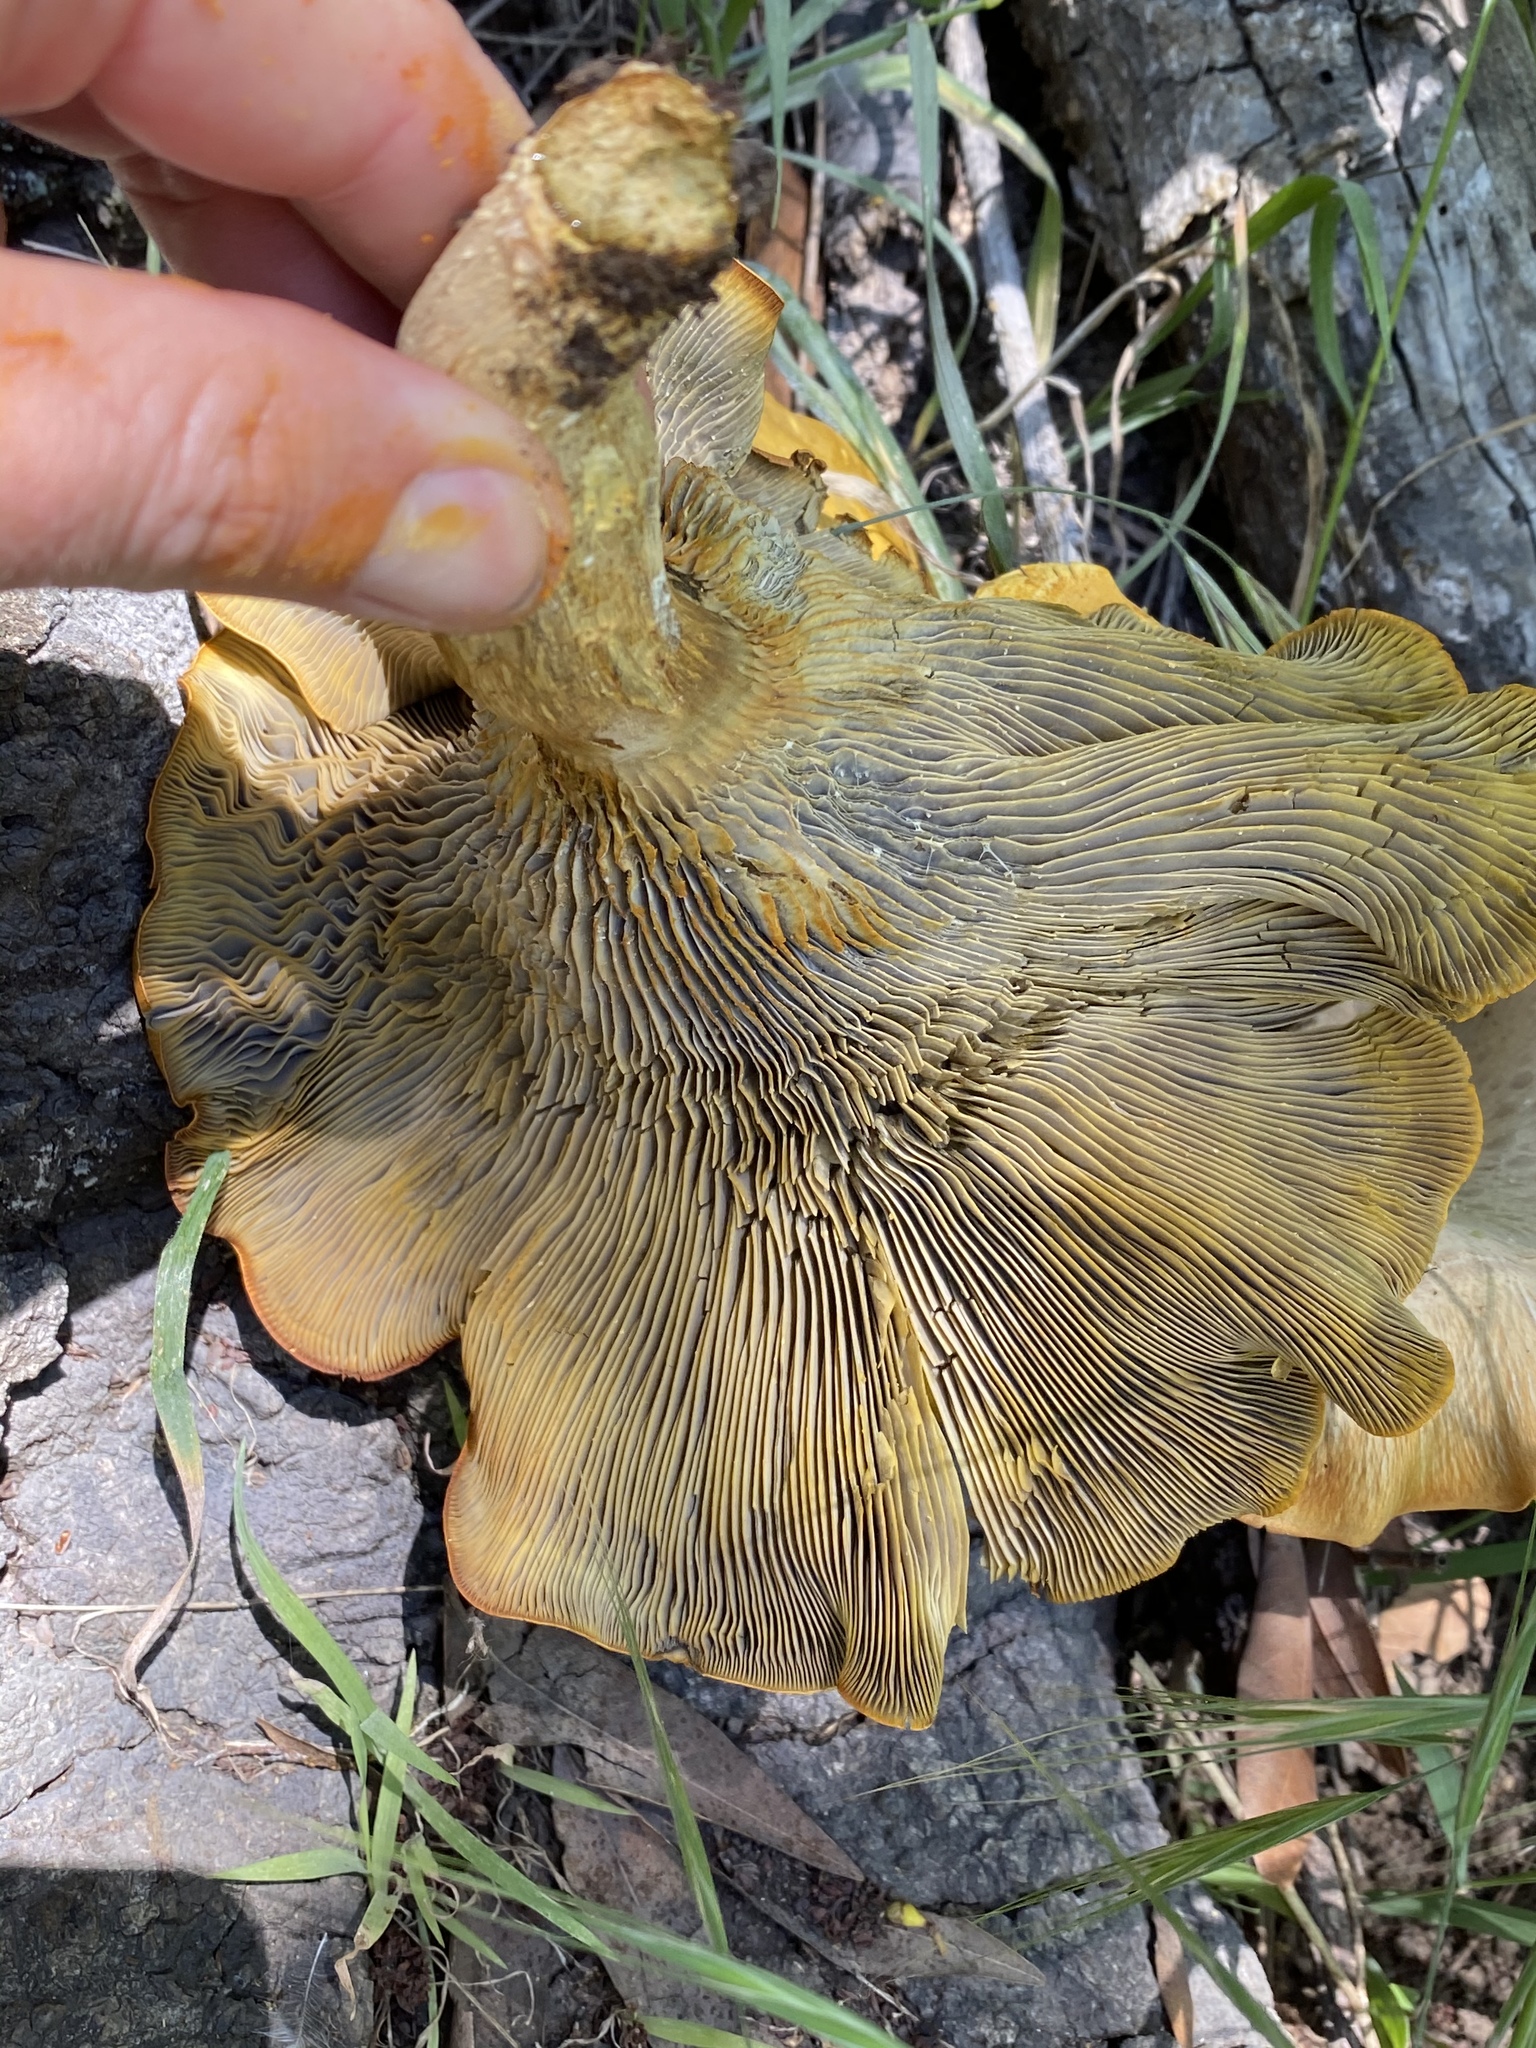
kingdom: Fungi
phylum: Basidiomycota
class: Agaricomycetes
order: Agaricales
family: Omphalotaceae
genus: Omphalotus
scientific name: Omphalotus olivascens
